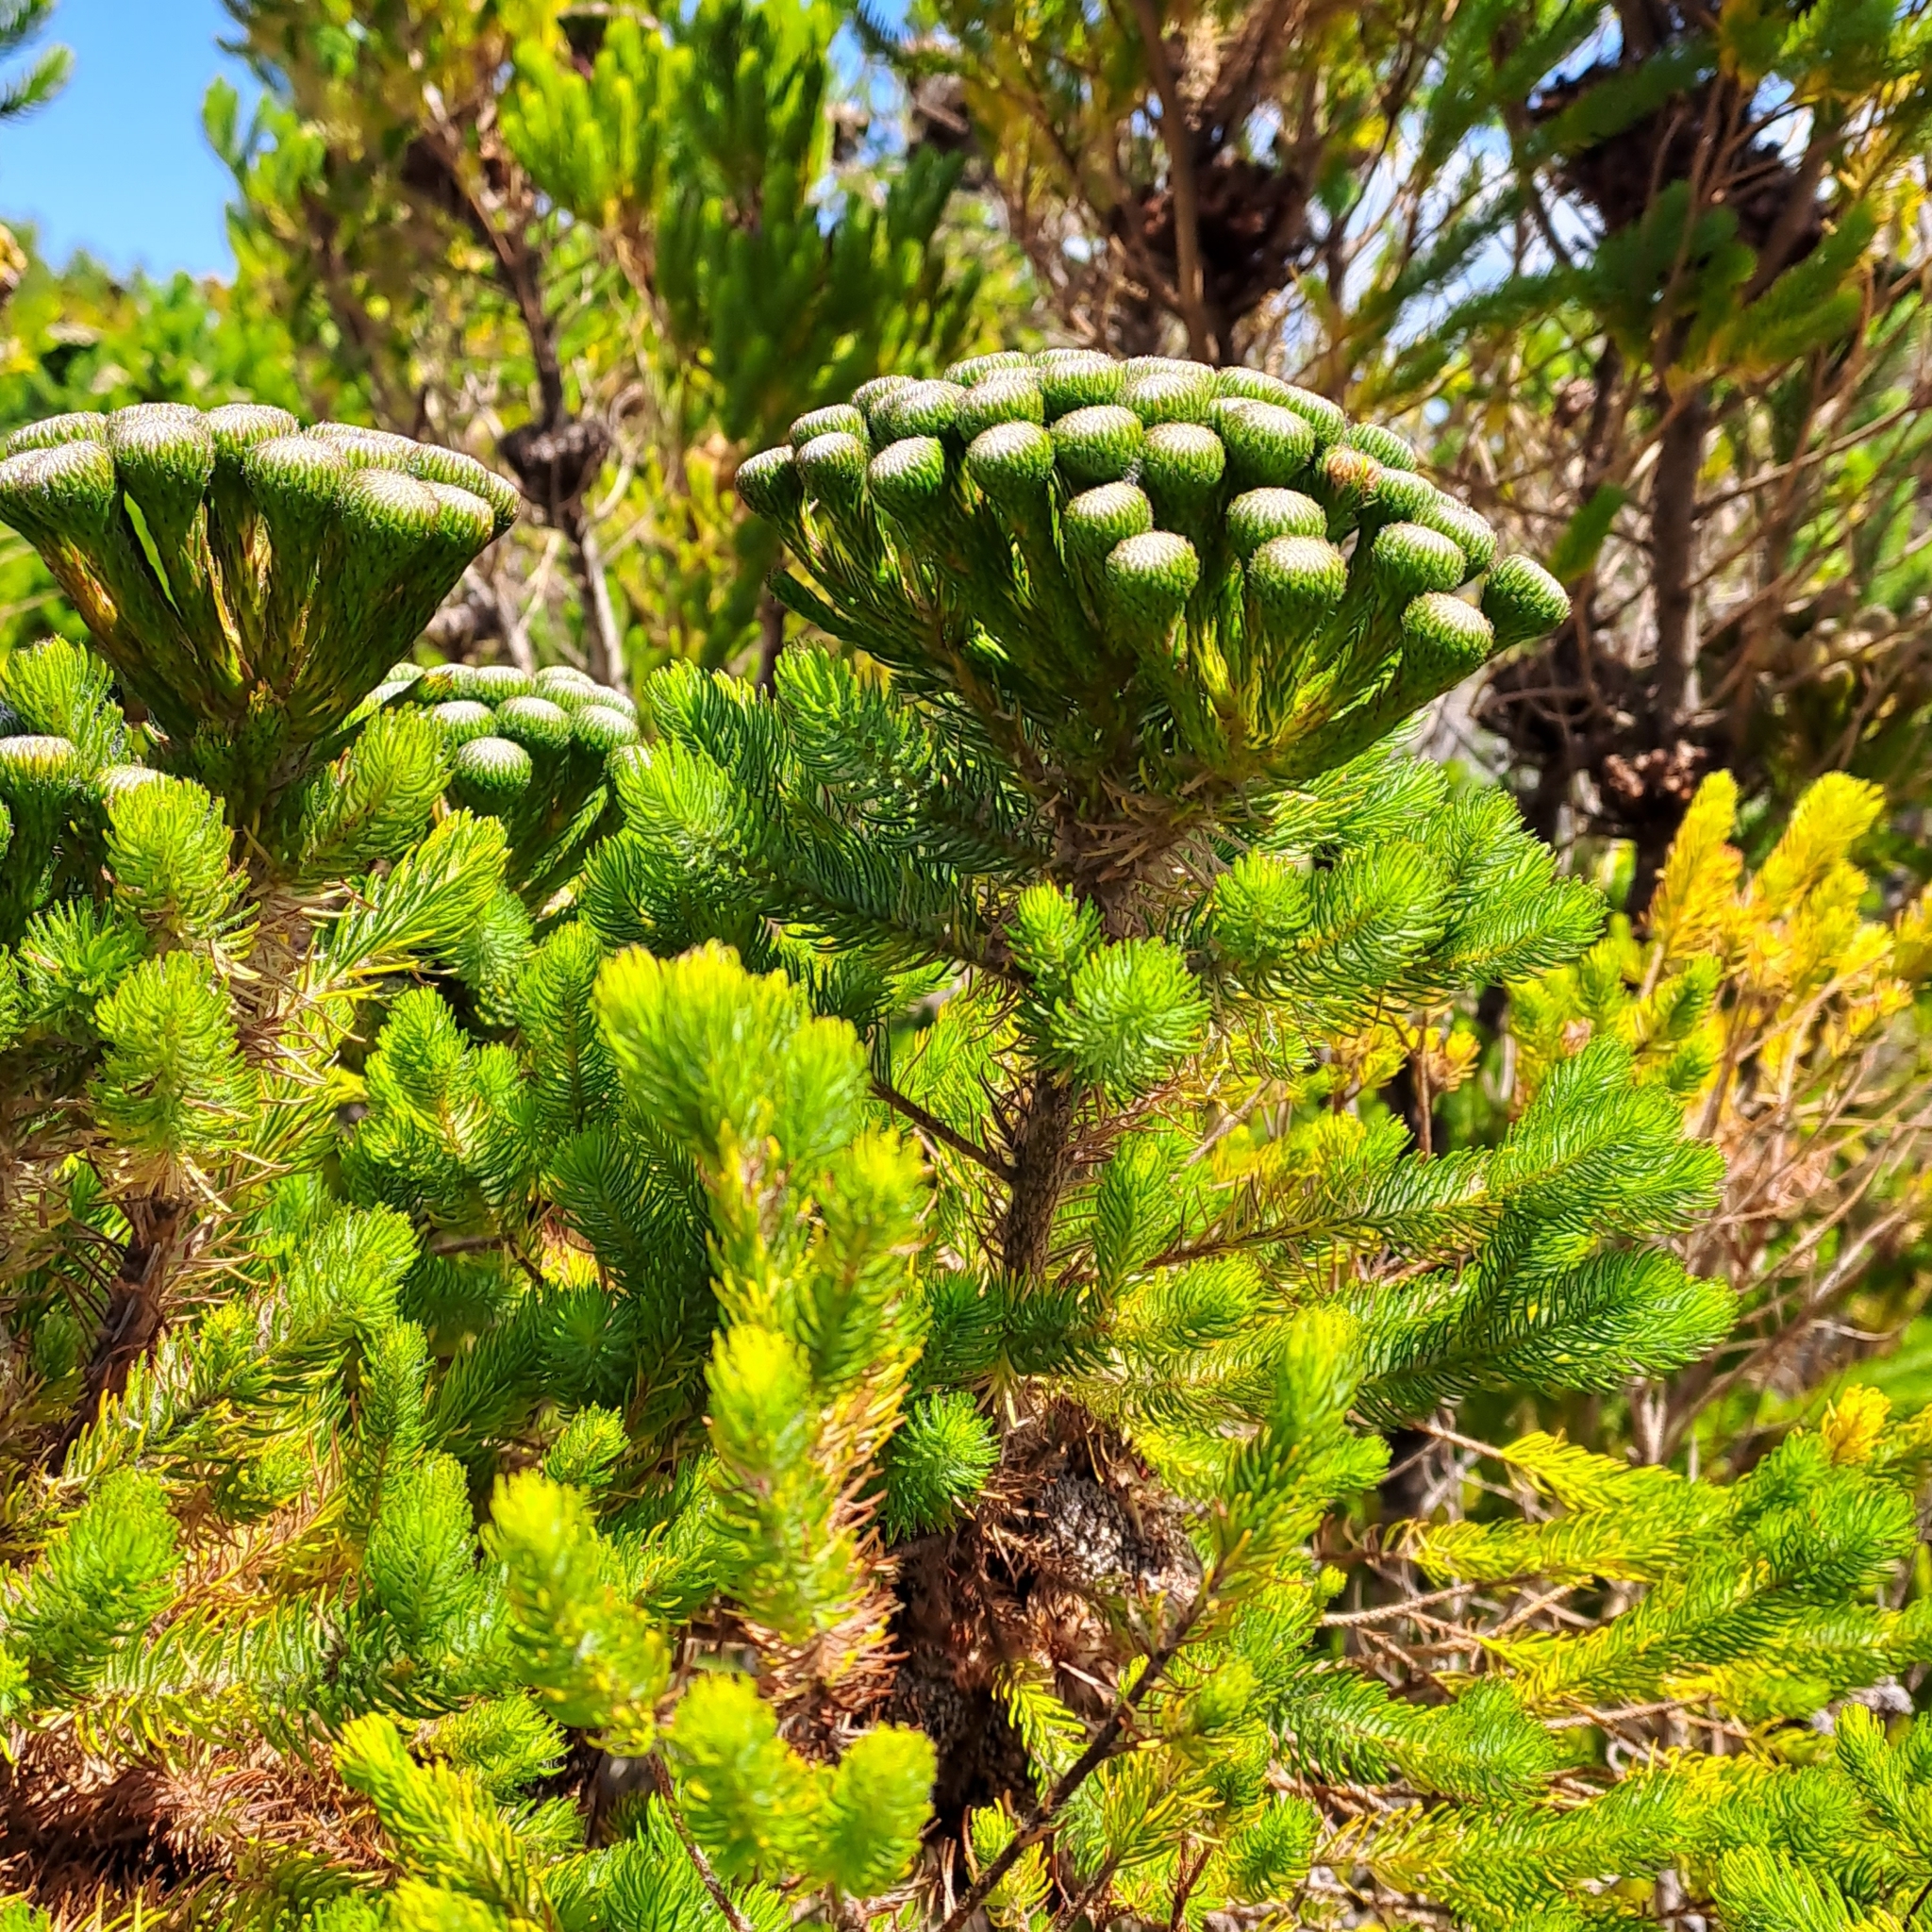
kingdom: Plantae
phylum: Tracheophyta
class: Magnoliopsida
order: Bruniales
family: Bruniaceae
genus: Berzelia
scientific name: Berzelia albiflora
